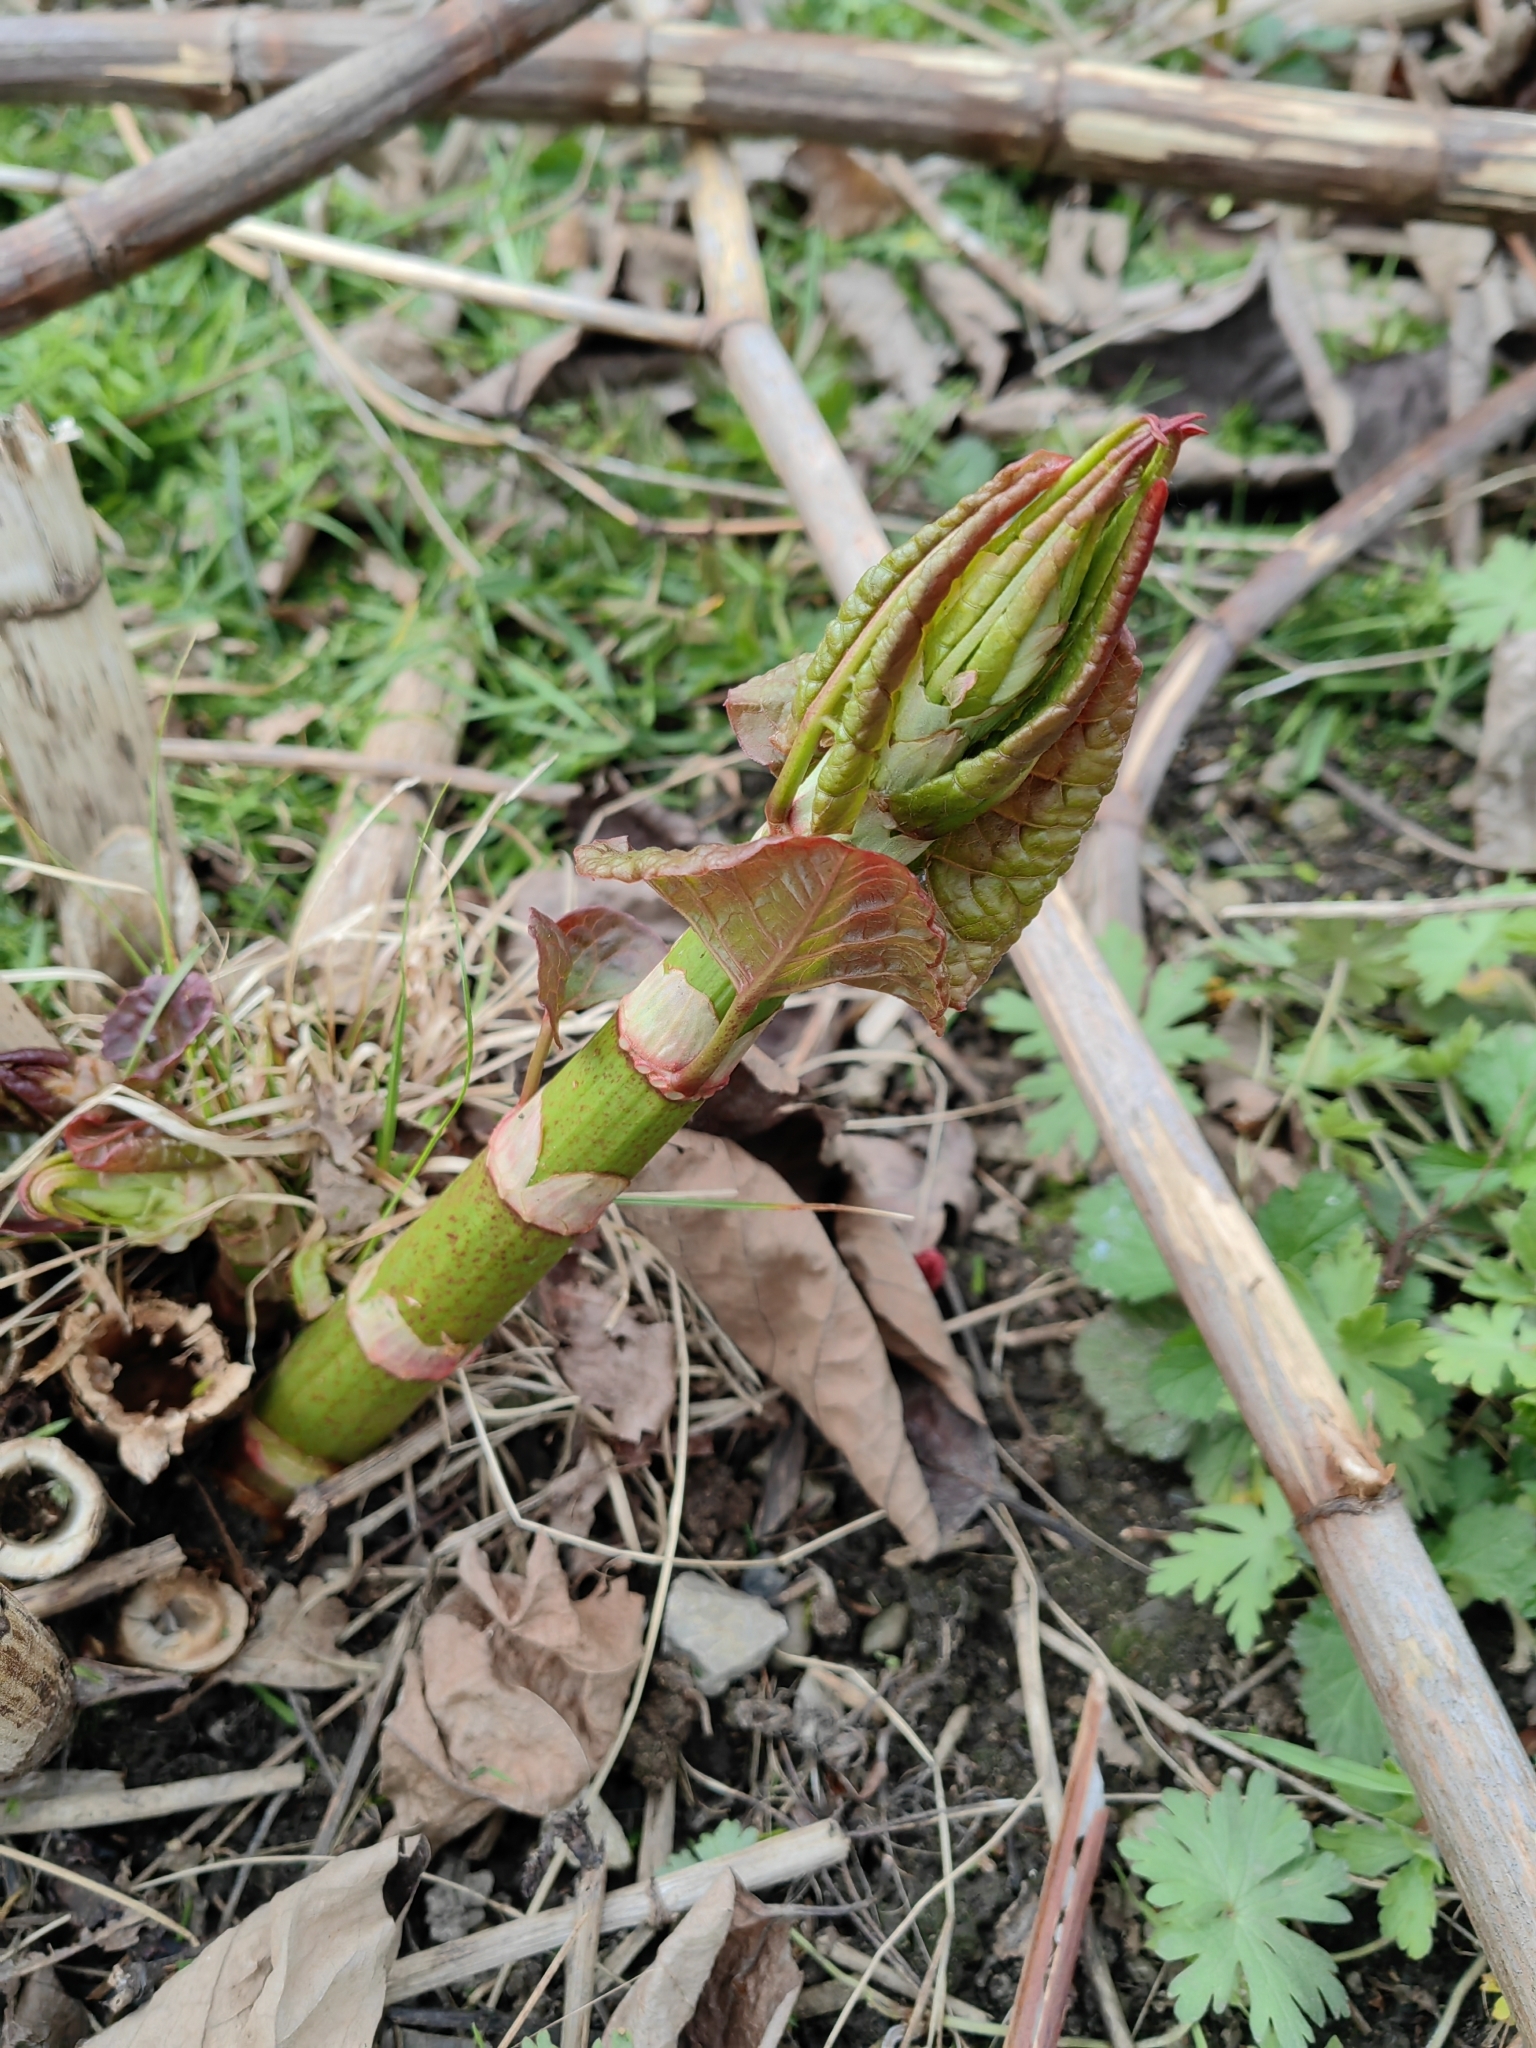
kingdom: Plantae
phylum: Tracheophyta
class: Magnoliopsida
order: Caryophyllales
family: Polygonaceae
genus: Reynoutria
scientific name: Reynoutria bohemica
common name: Bohemian knotweed
